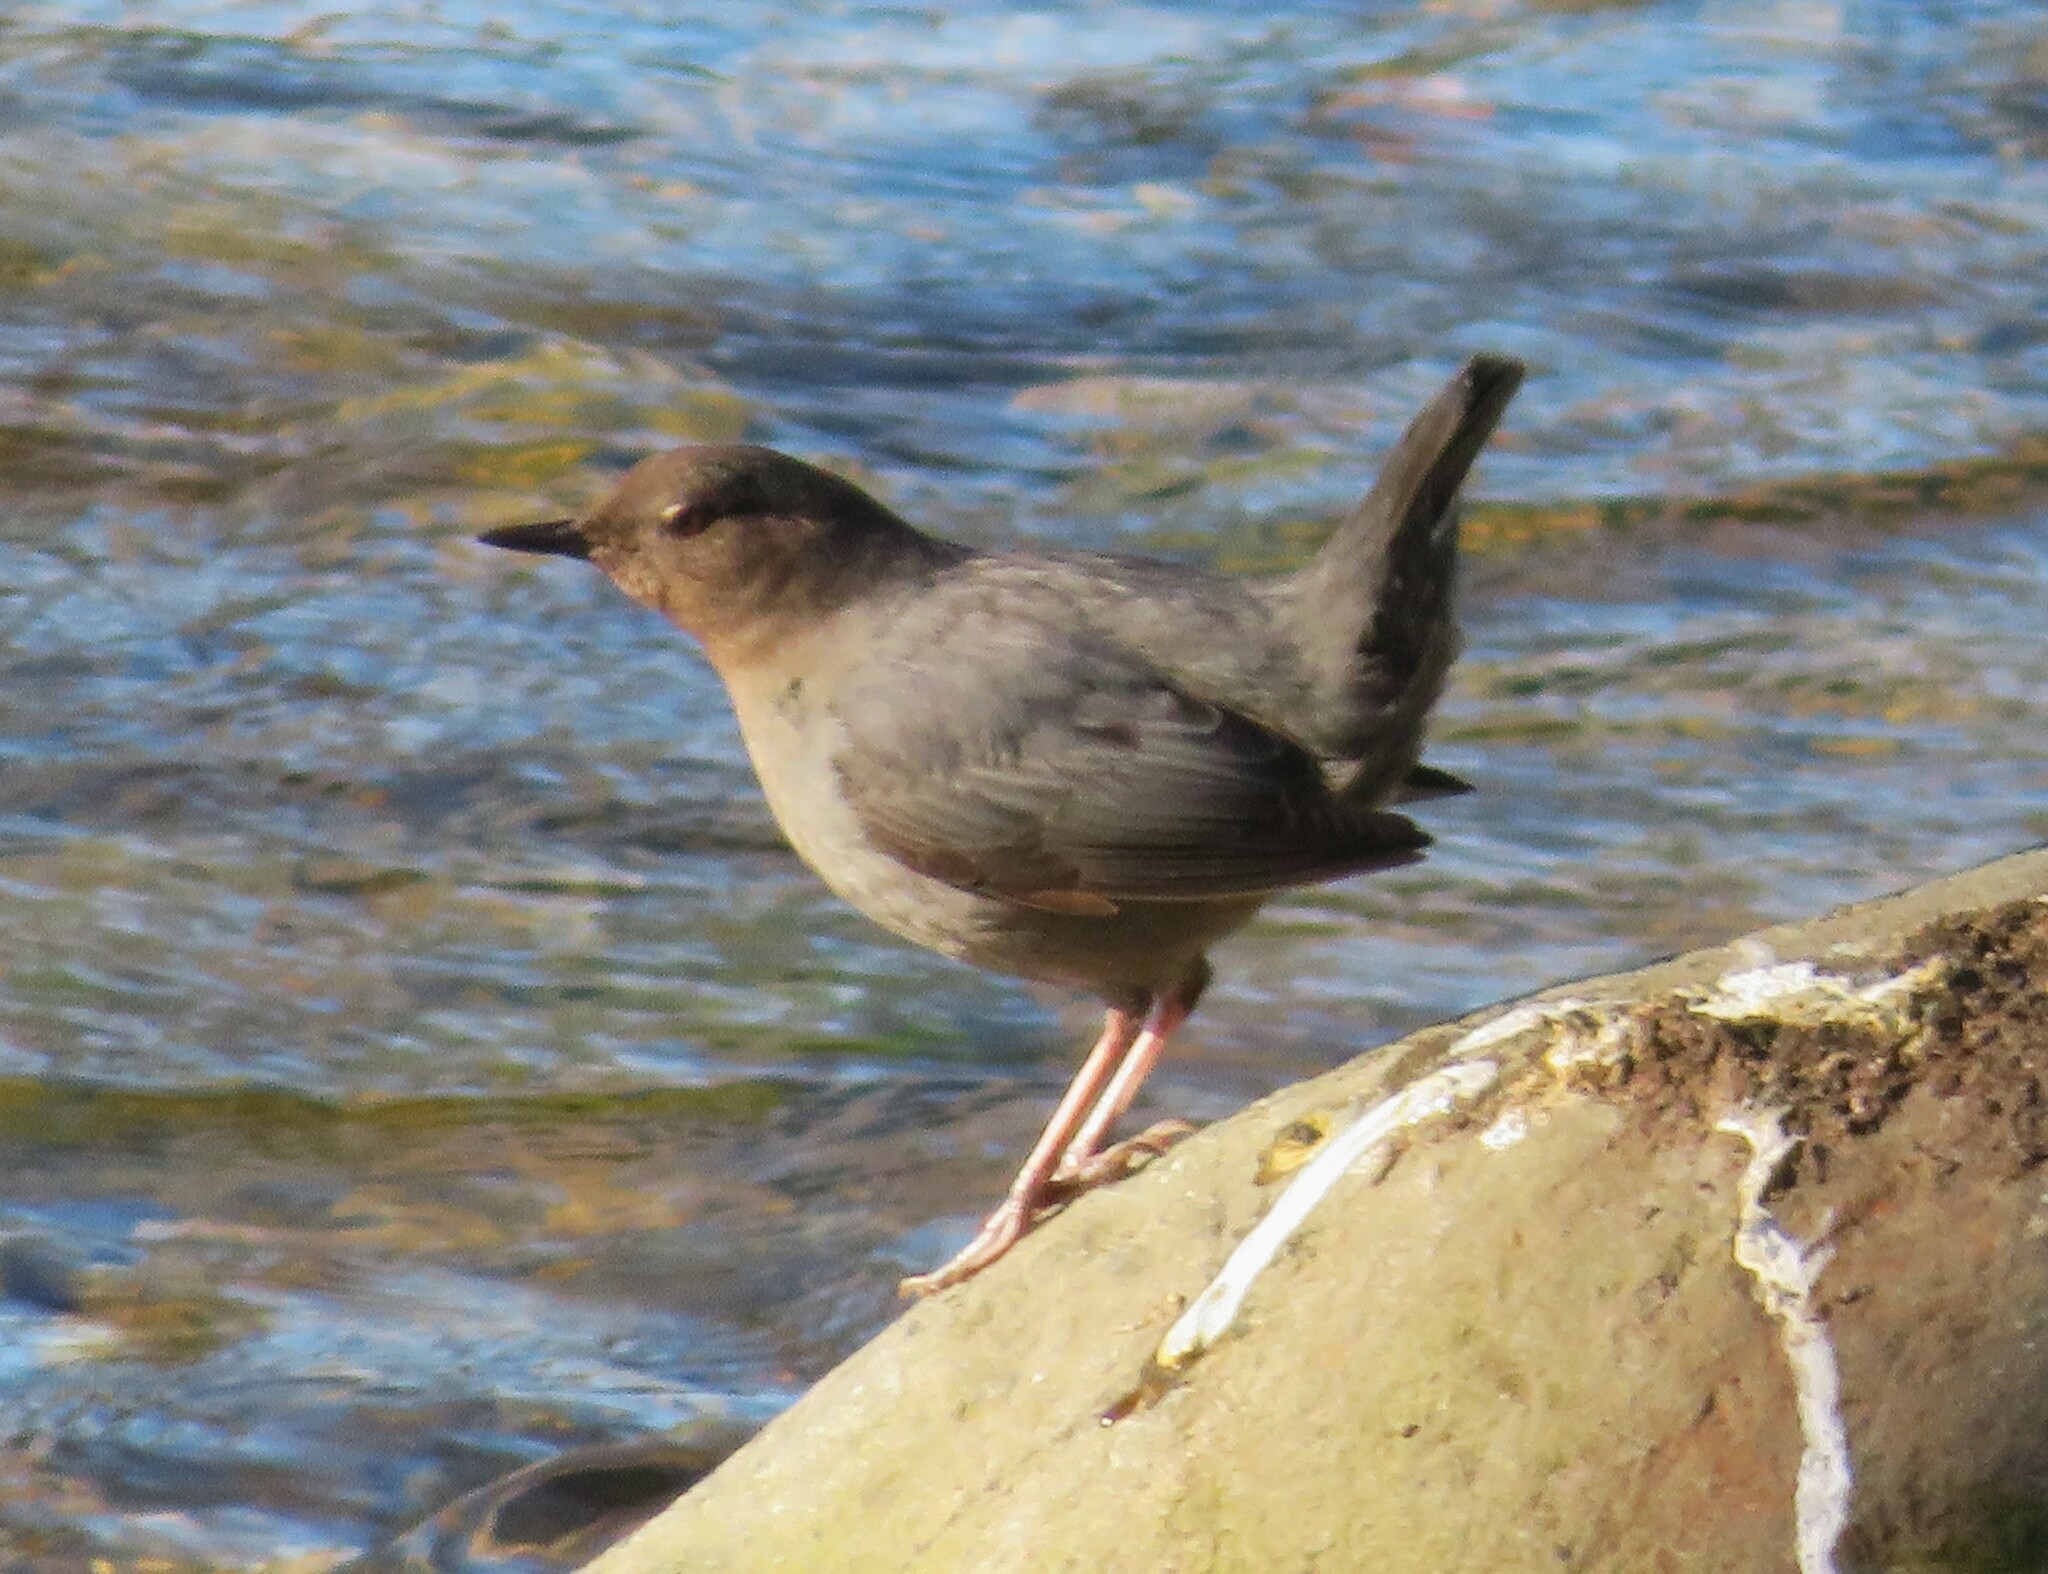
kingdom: Animalia
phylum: Chordata
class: Aves
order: Passeriformes
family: Cinclidae
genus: Cinclus
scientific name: Cinclus mexicanus
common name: American dipper
